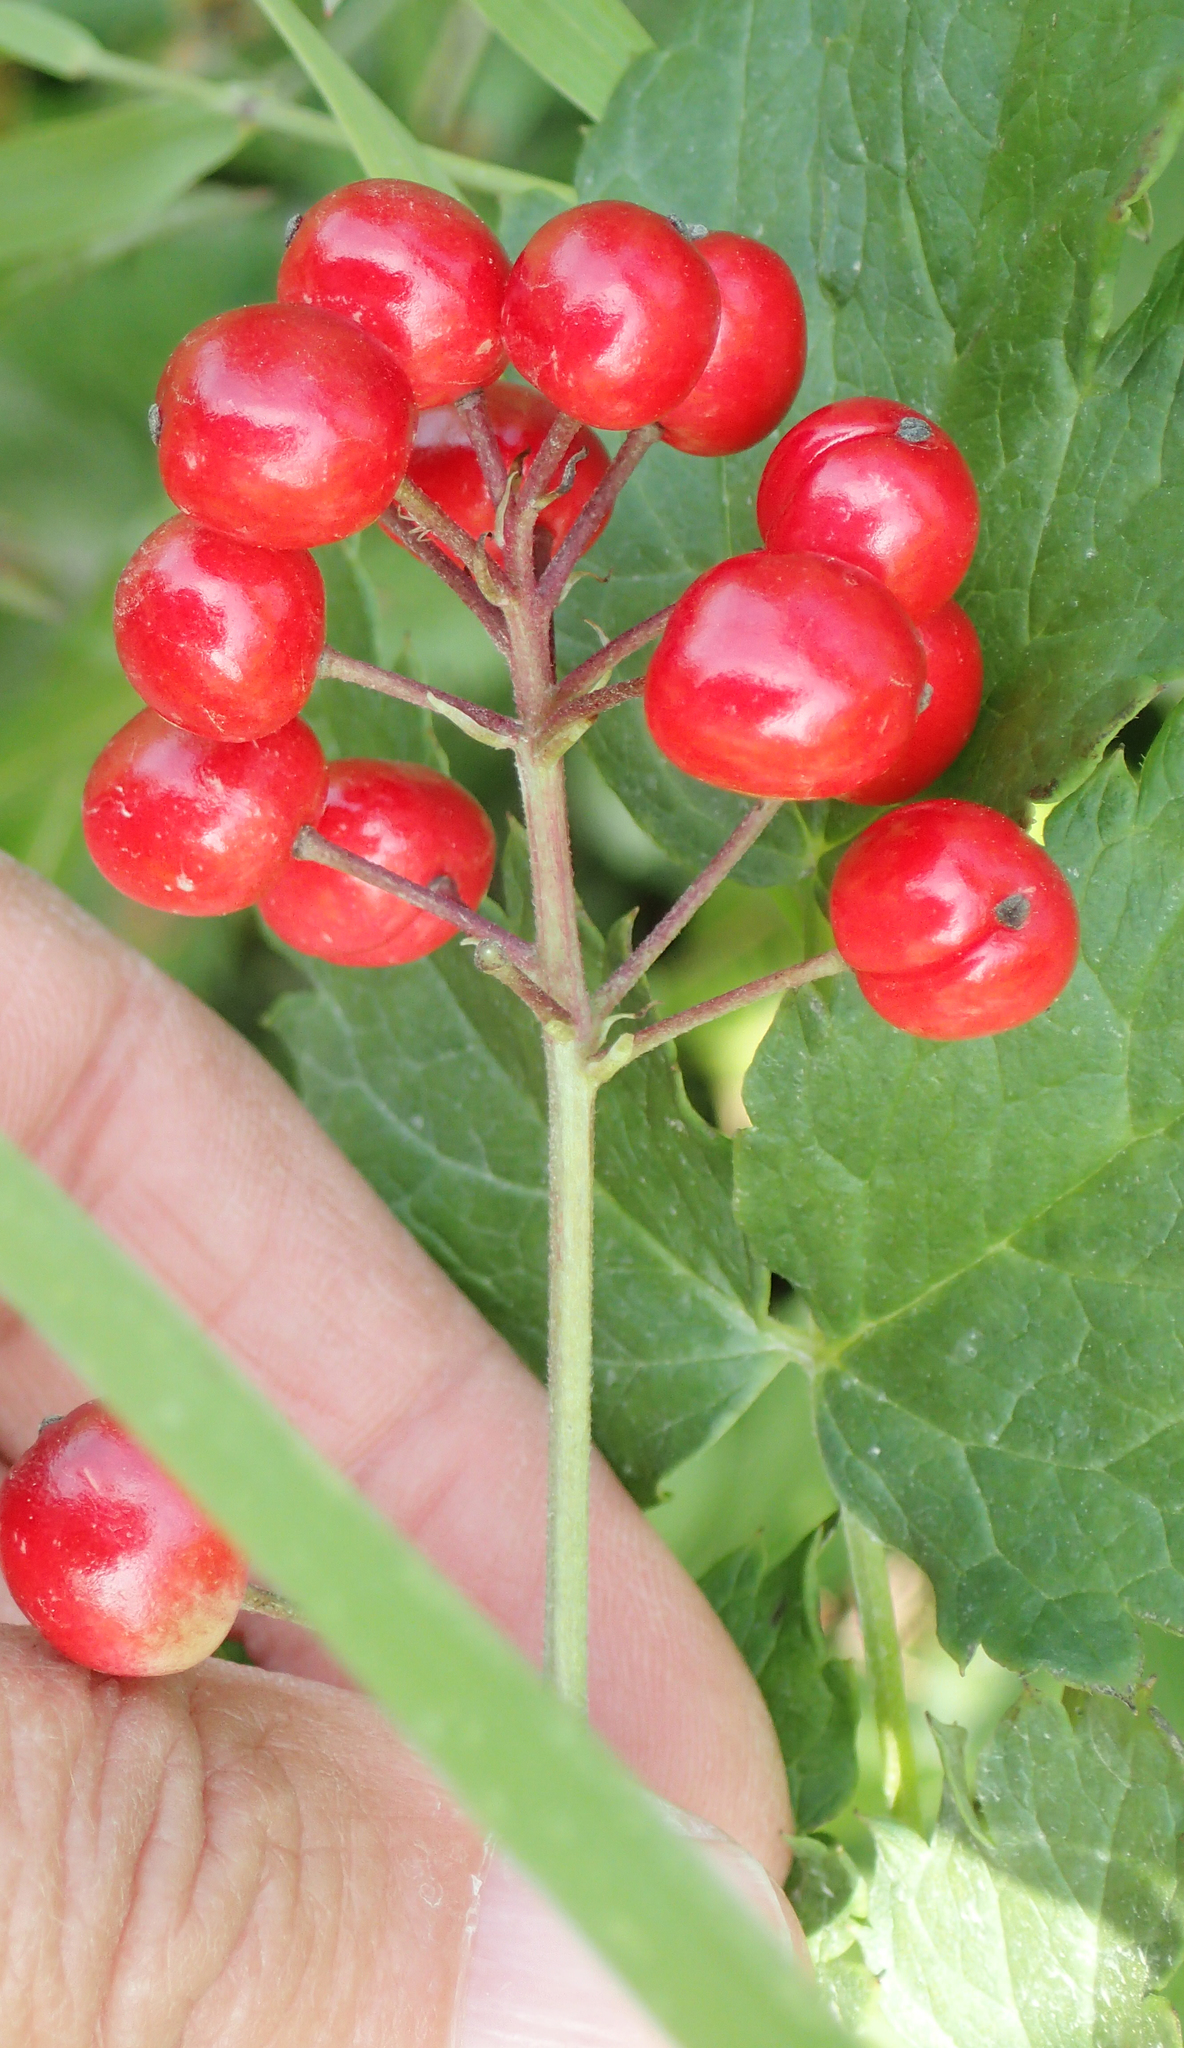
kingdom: Plantae
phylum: Tracheophyta
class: Magnoliopsida
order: Ranunculales
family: Ranunculaceae
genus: Actaea
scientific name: Actaea rubra
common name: Red baneberry
